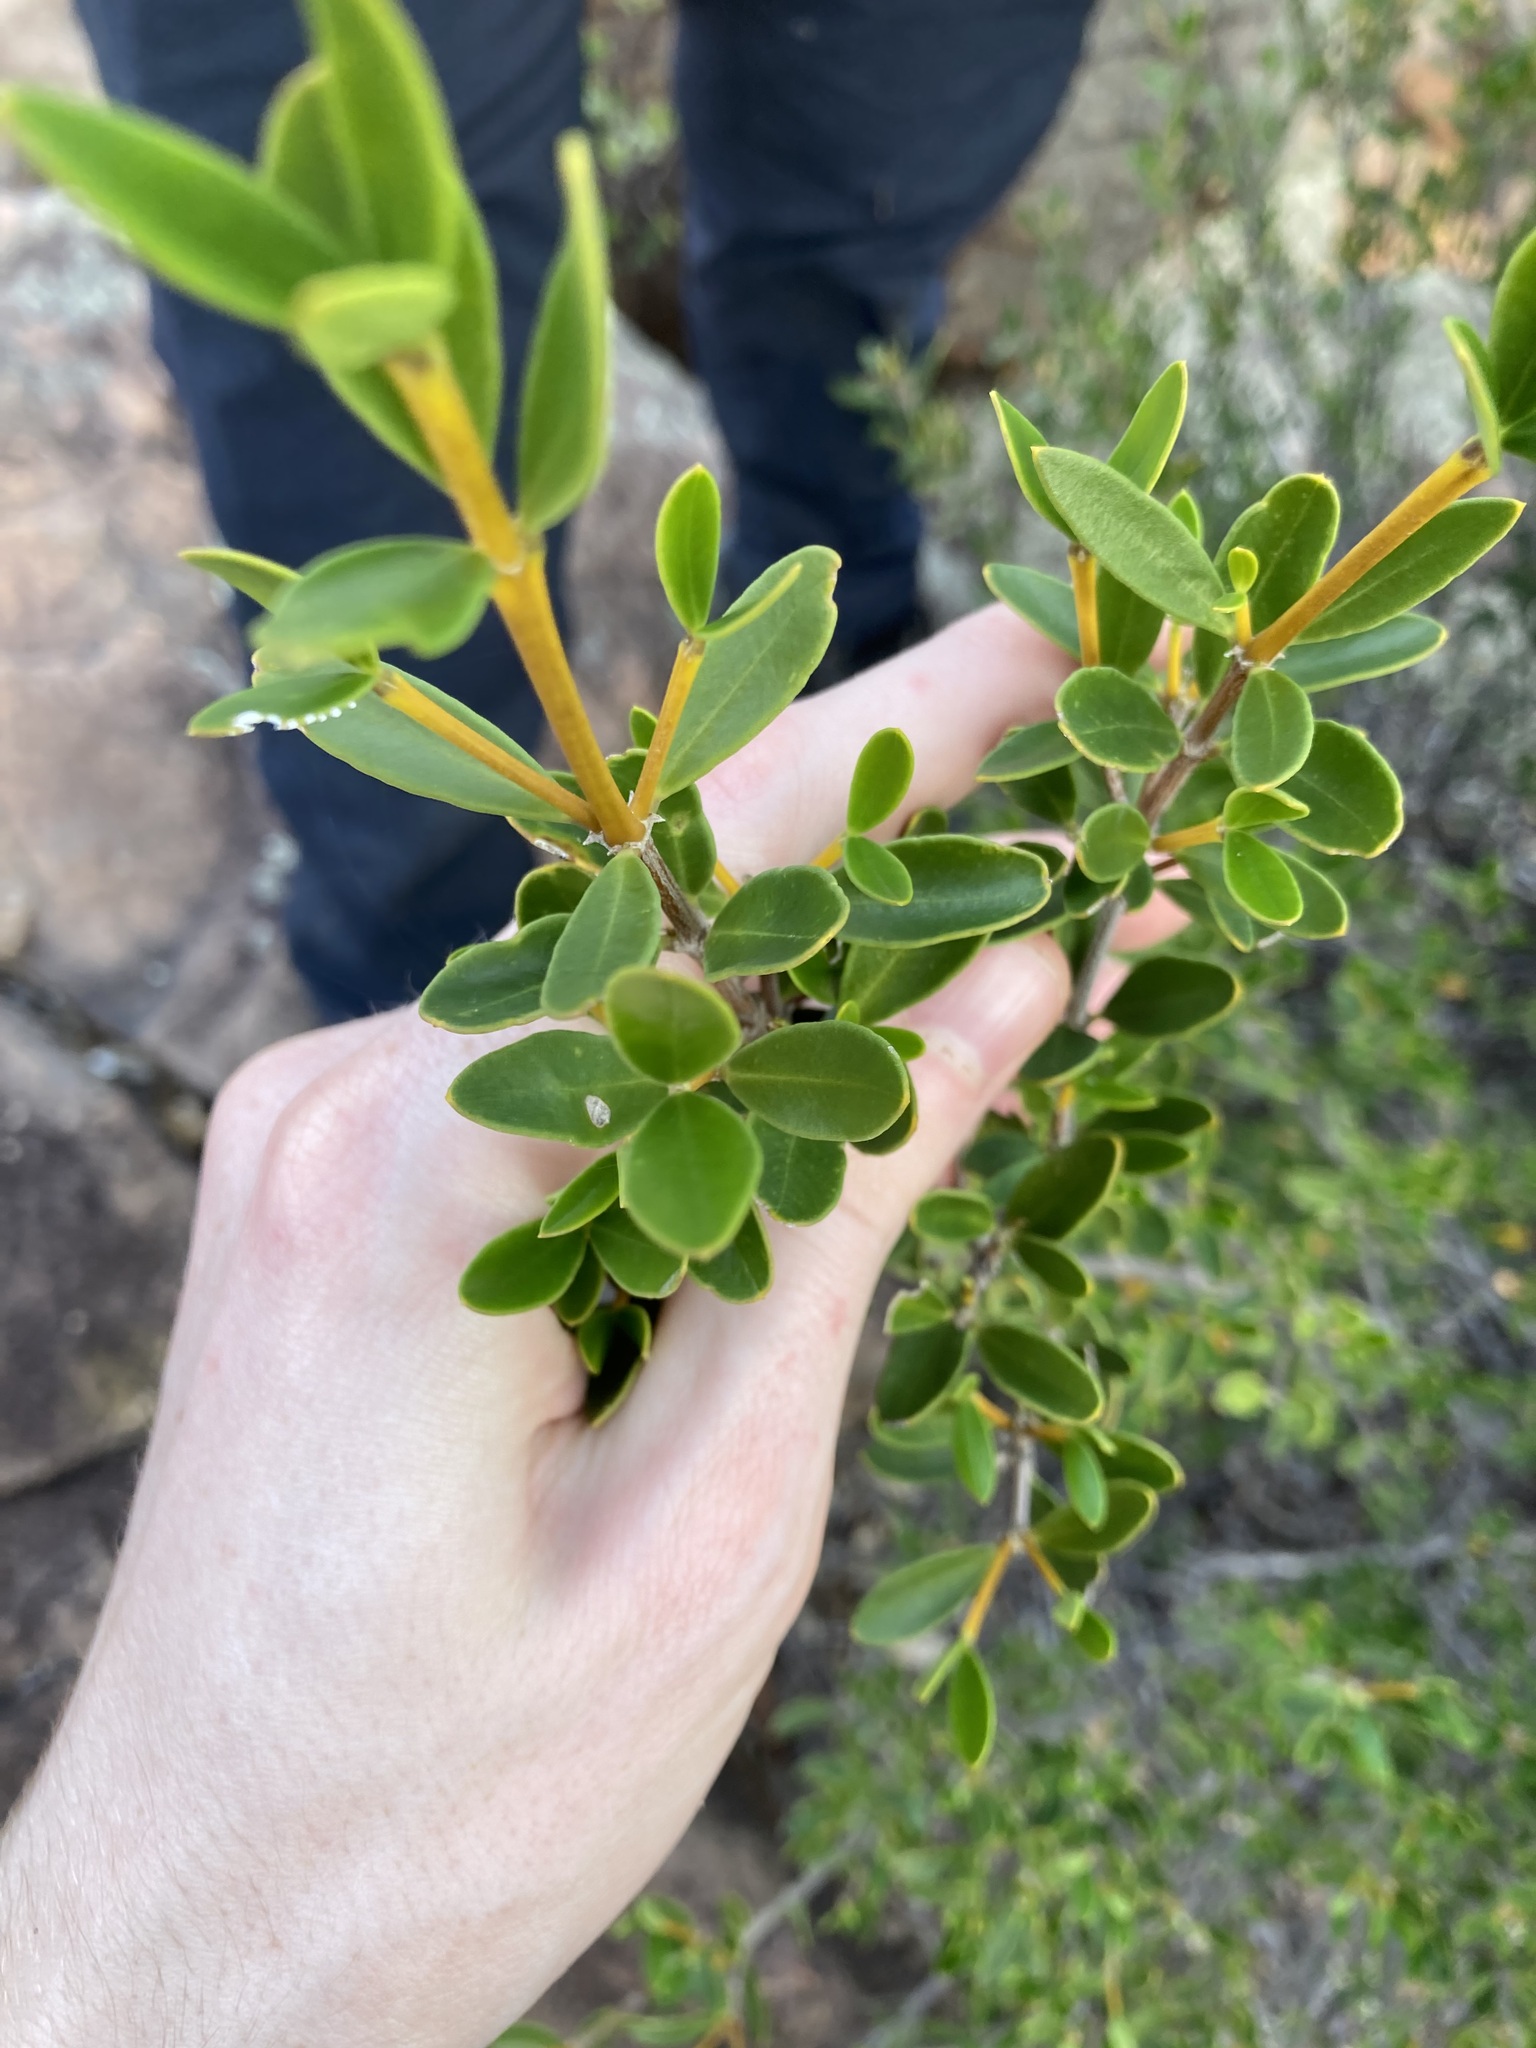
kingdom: Plantae
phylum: Tracheophyta
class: Magnoliopsida
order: Gentianales
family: Apocynaceae
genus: Alyxia
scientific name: Alyxia buxifolia
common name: Dysentery-bush
